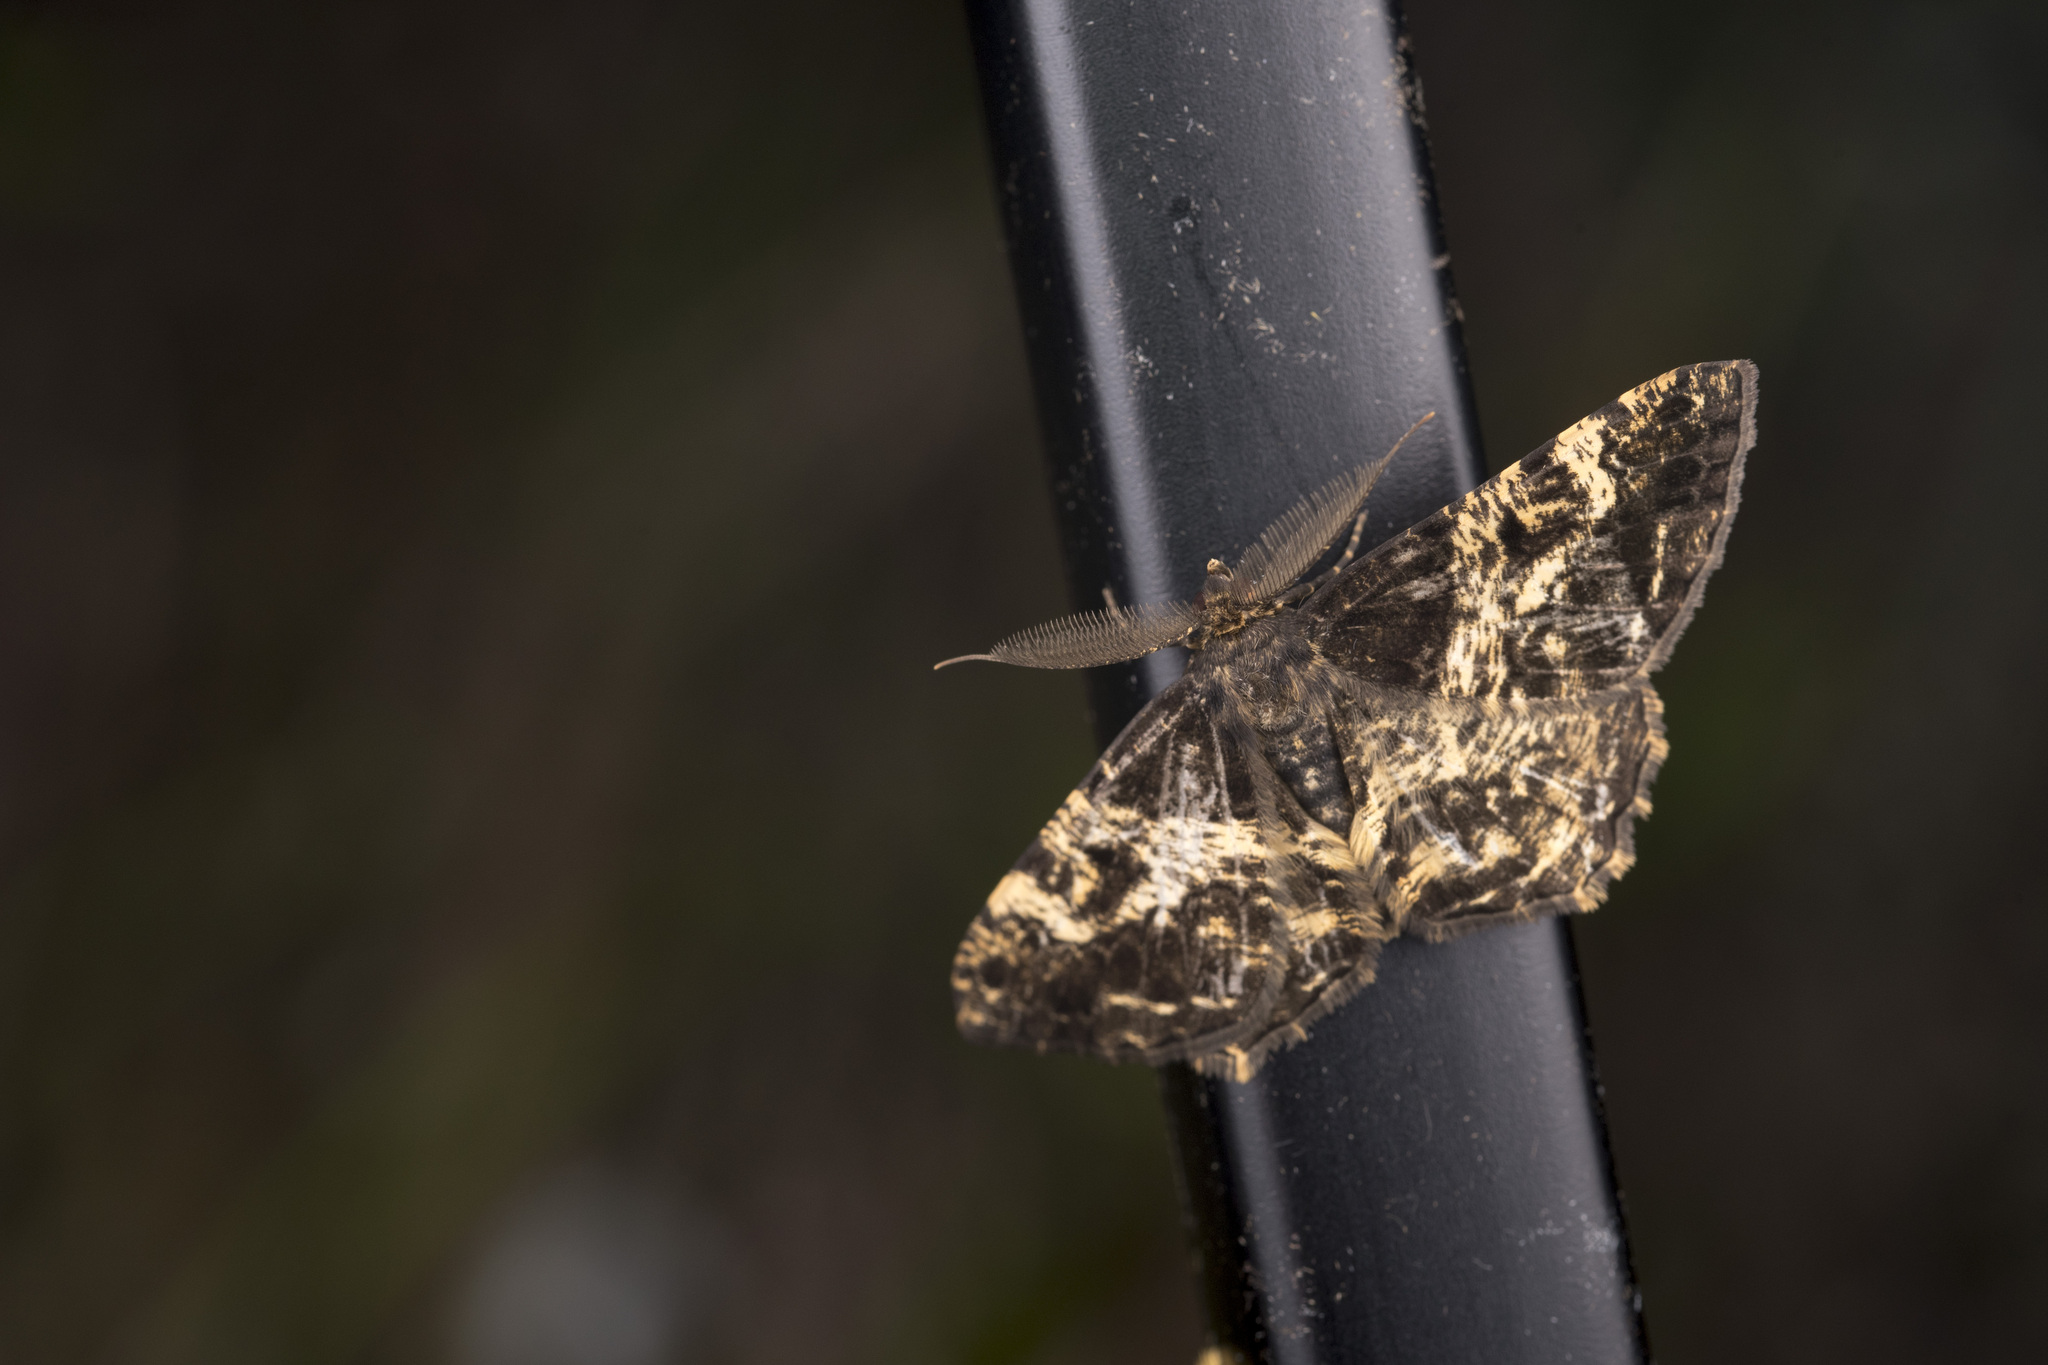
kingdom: Animalia
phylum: Arthropoda
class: Insecta
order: Lepidoptera
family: Geometridae
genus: Darisa
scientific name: Darisa lampasaria
